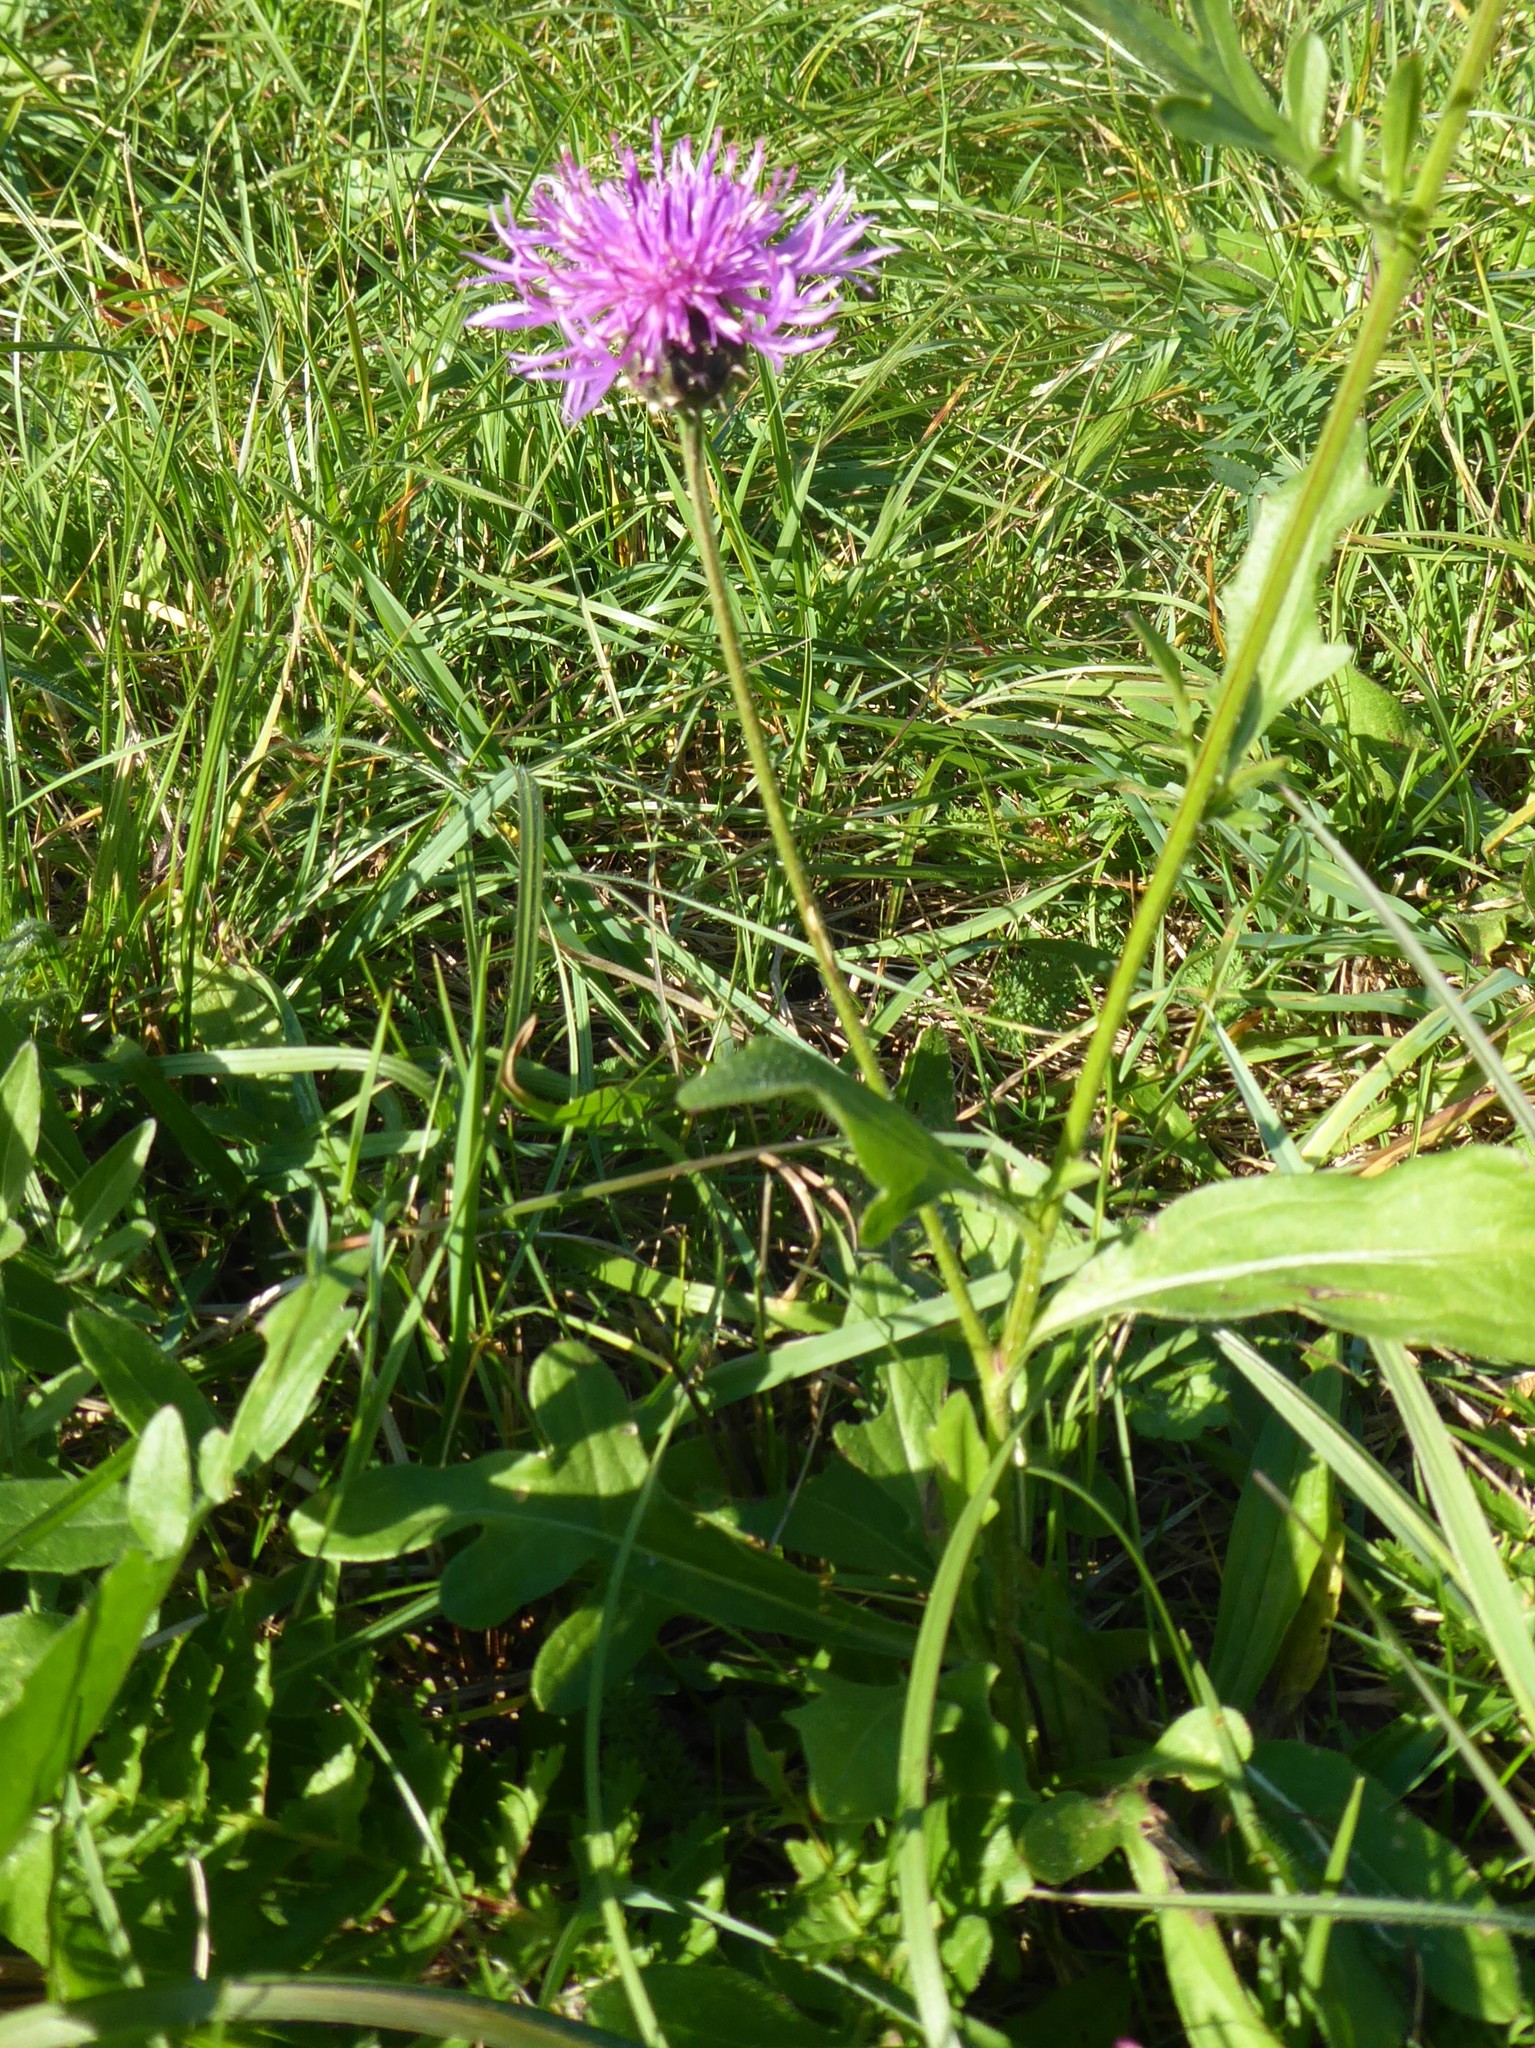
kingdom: Plantae
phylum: Tracheophyta
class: Magnoliopsida
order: Asterales
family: Asteraceae
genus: Centaurea
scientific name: Centaurea scabiosa
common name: Greater knapweed
